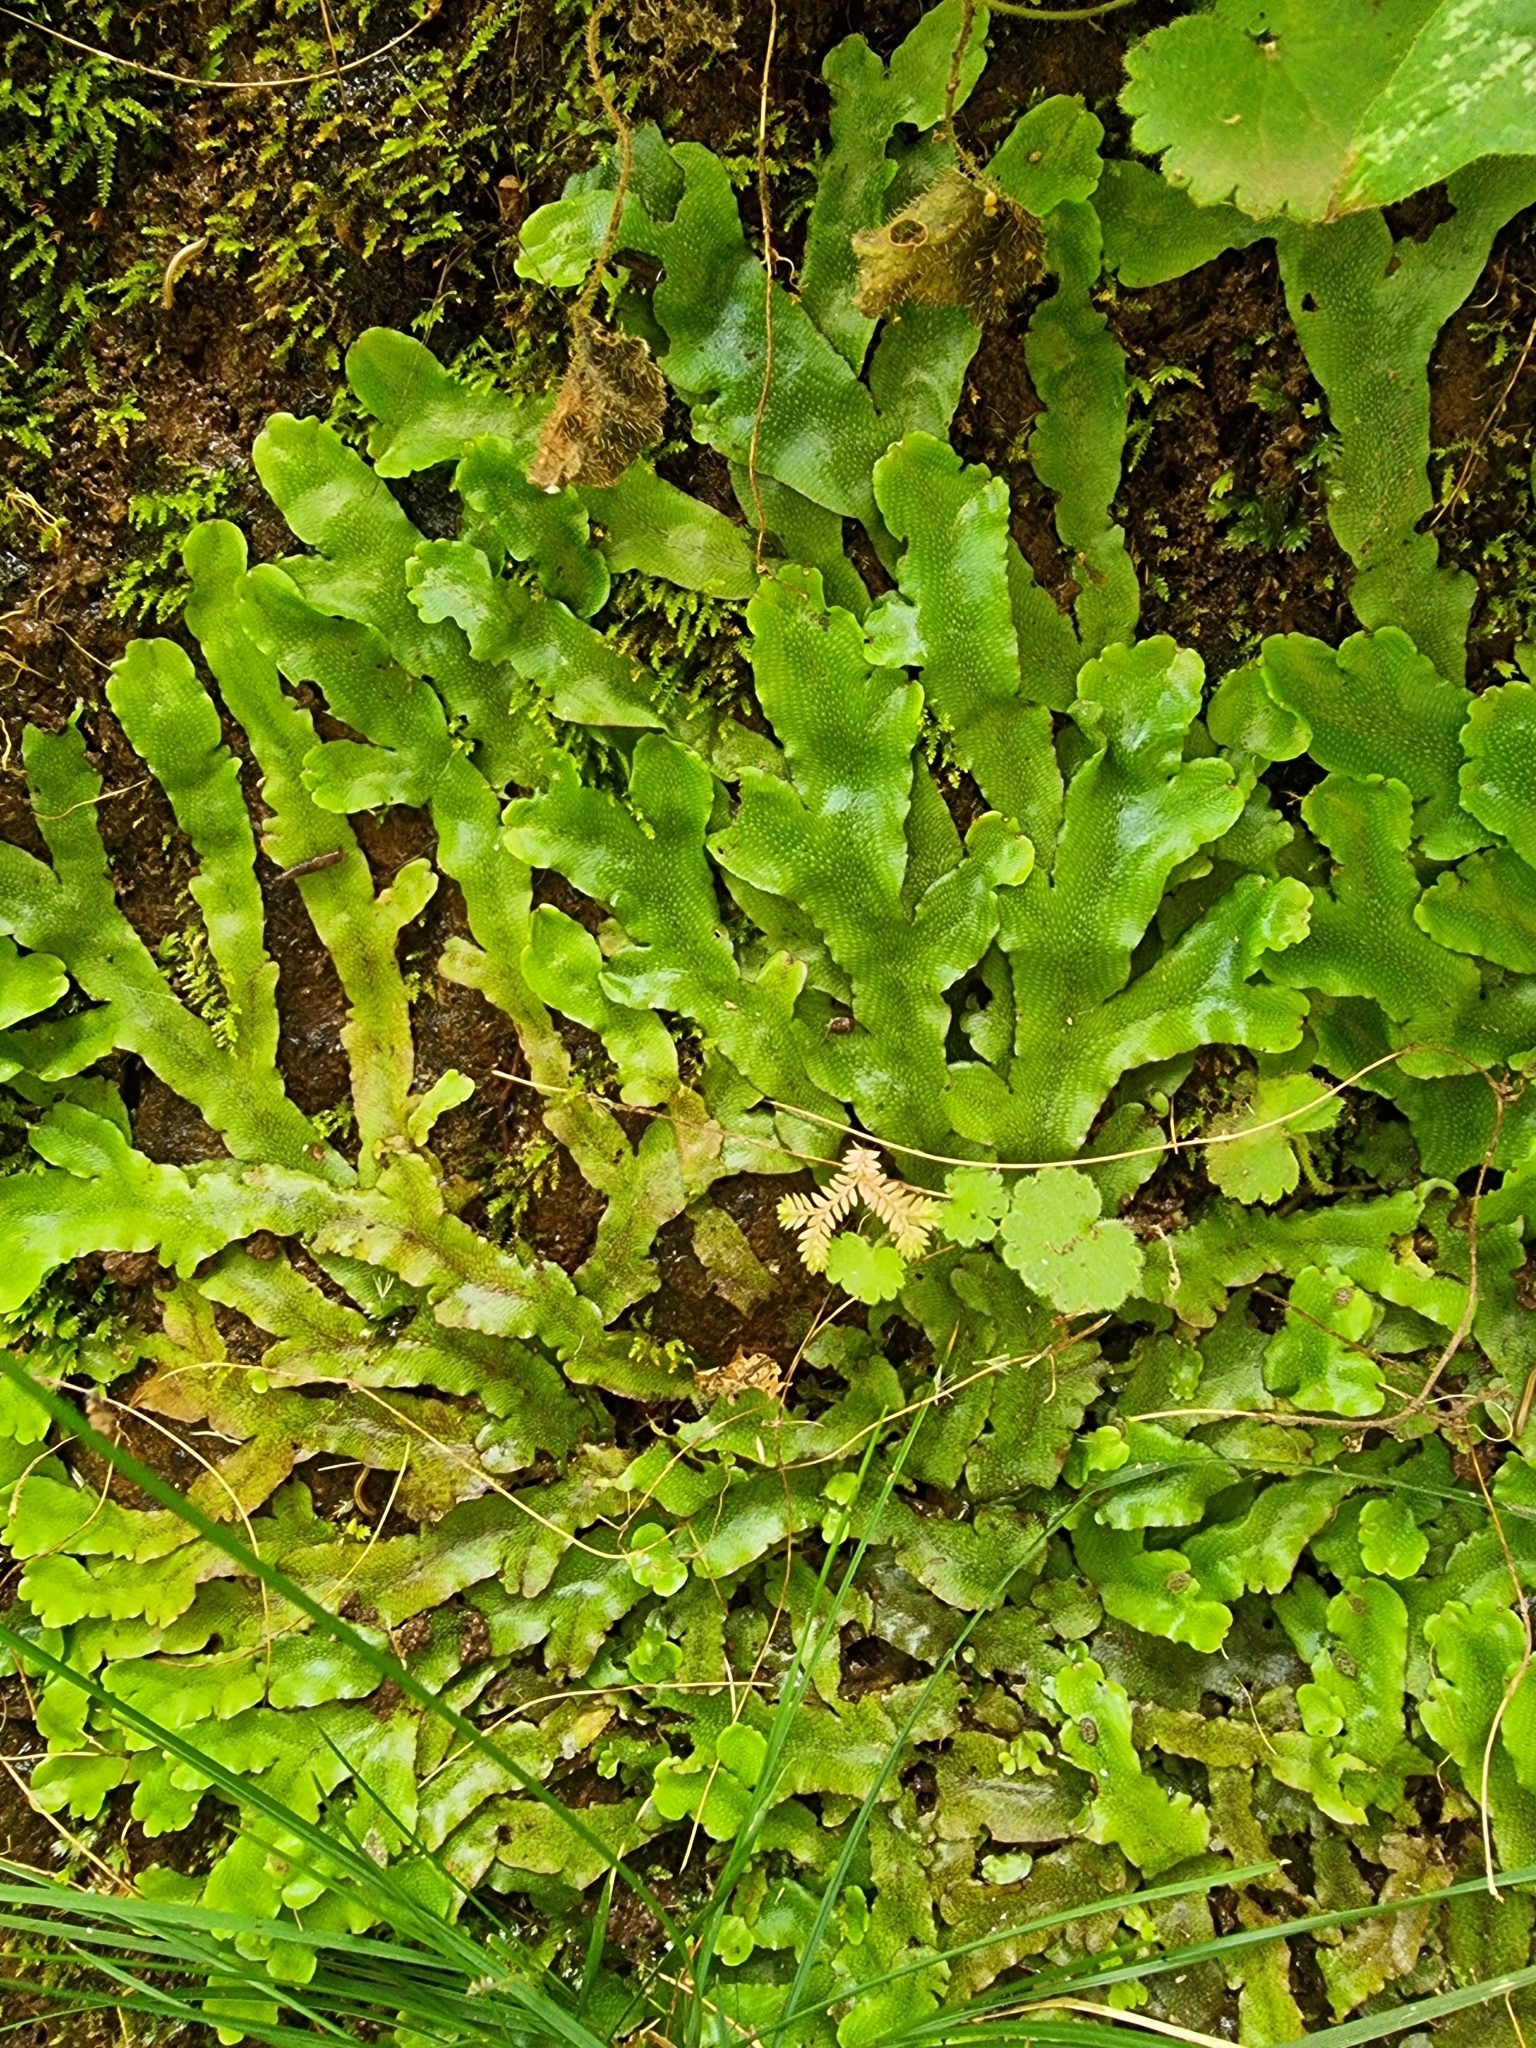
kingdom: Plantae
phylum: Marchantiophyta
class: Marchantiopsida
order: Marchantiales
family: Conocephalaceae
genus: Conocephalum
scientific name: Conocephalum conicum
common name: Great scented liverwort
